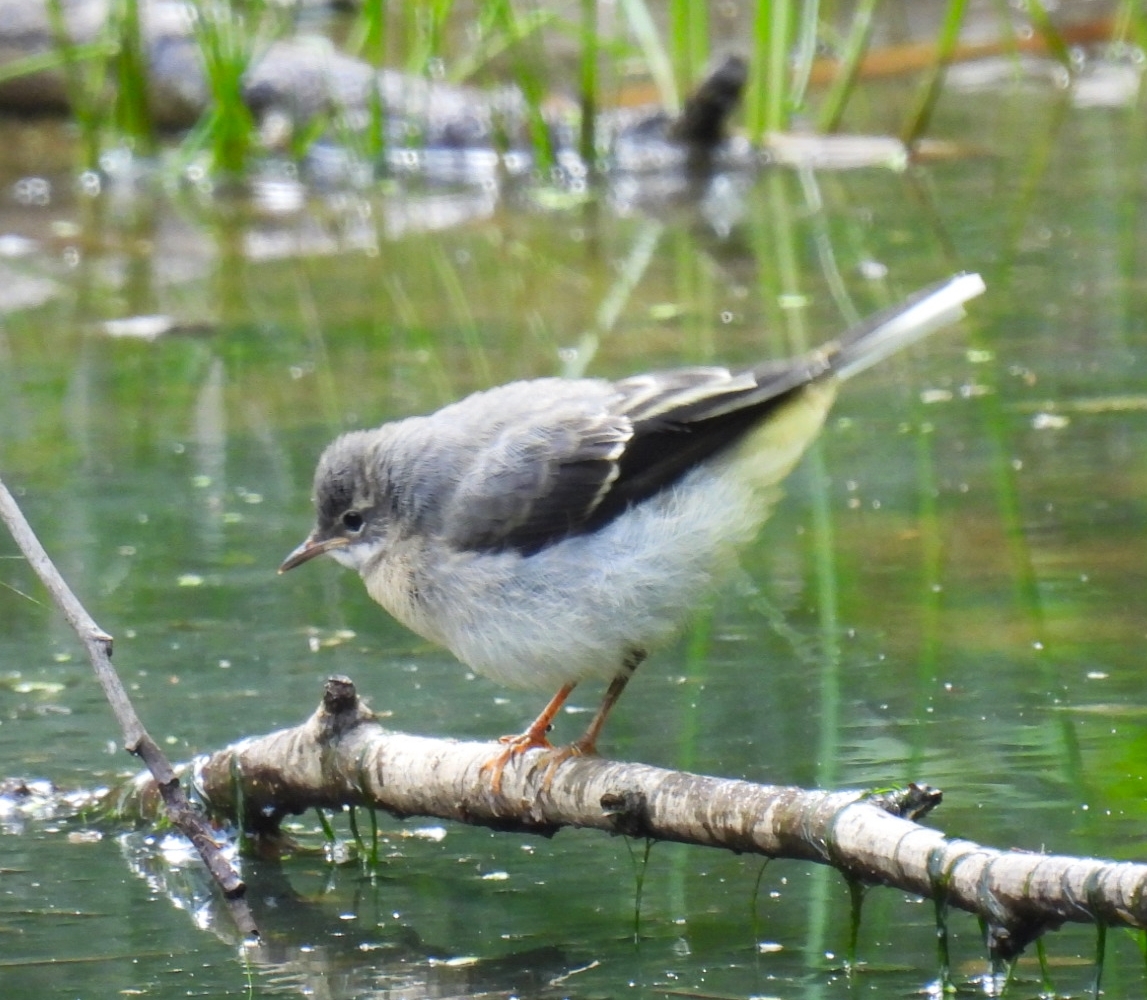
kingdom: Animalia
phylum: Chordata
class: Aves
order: Passeriformes
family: Motacillidae
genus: Motacilla
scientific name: Motacilla cinerea
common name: Grey wagtail
